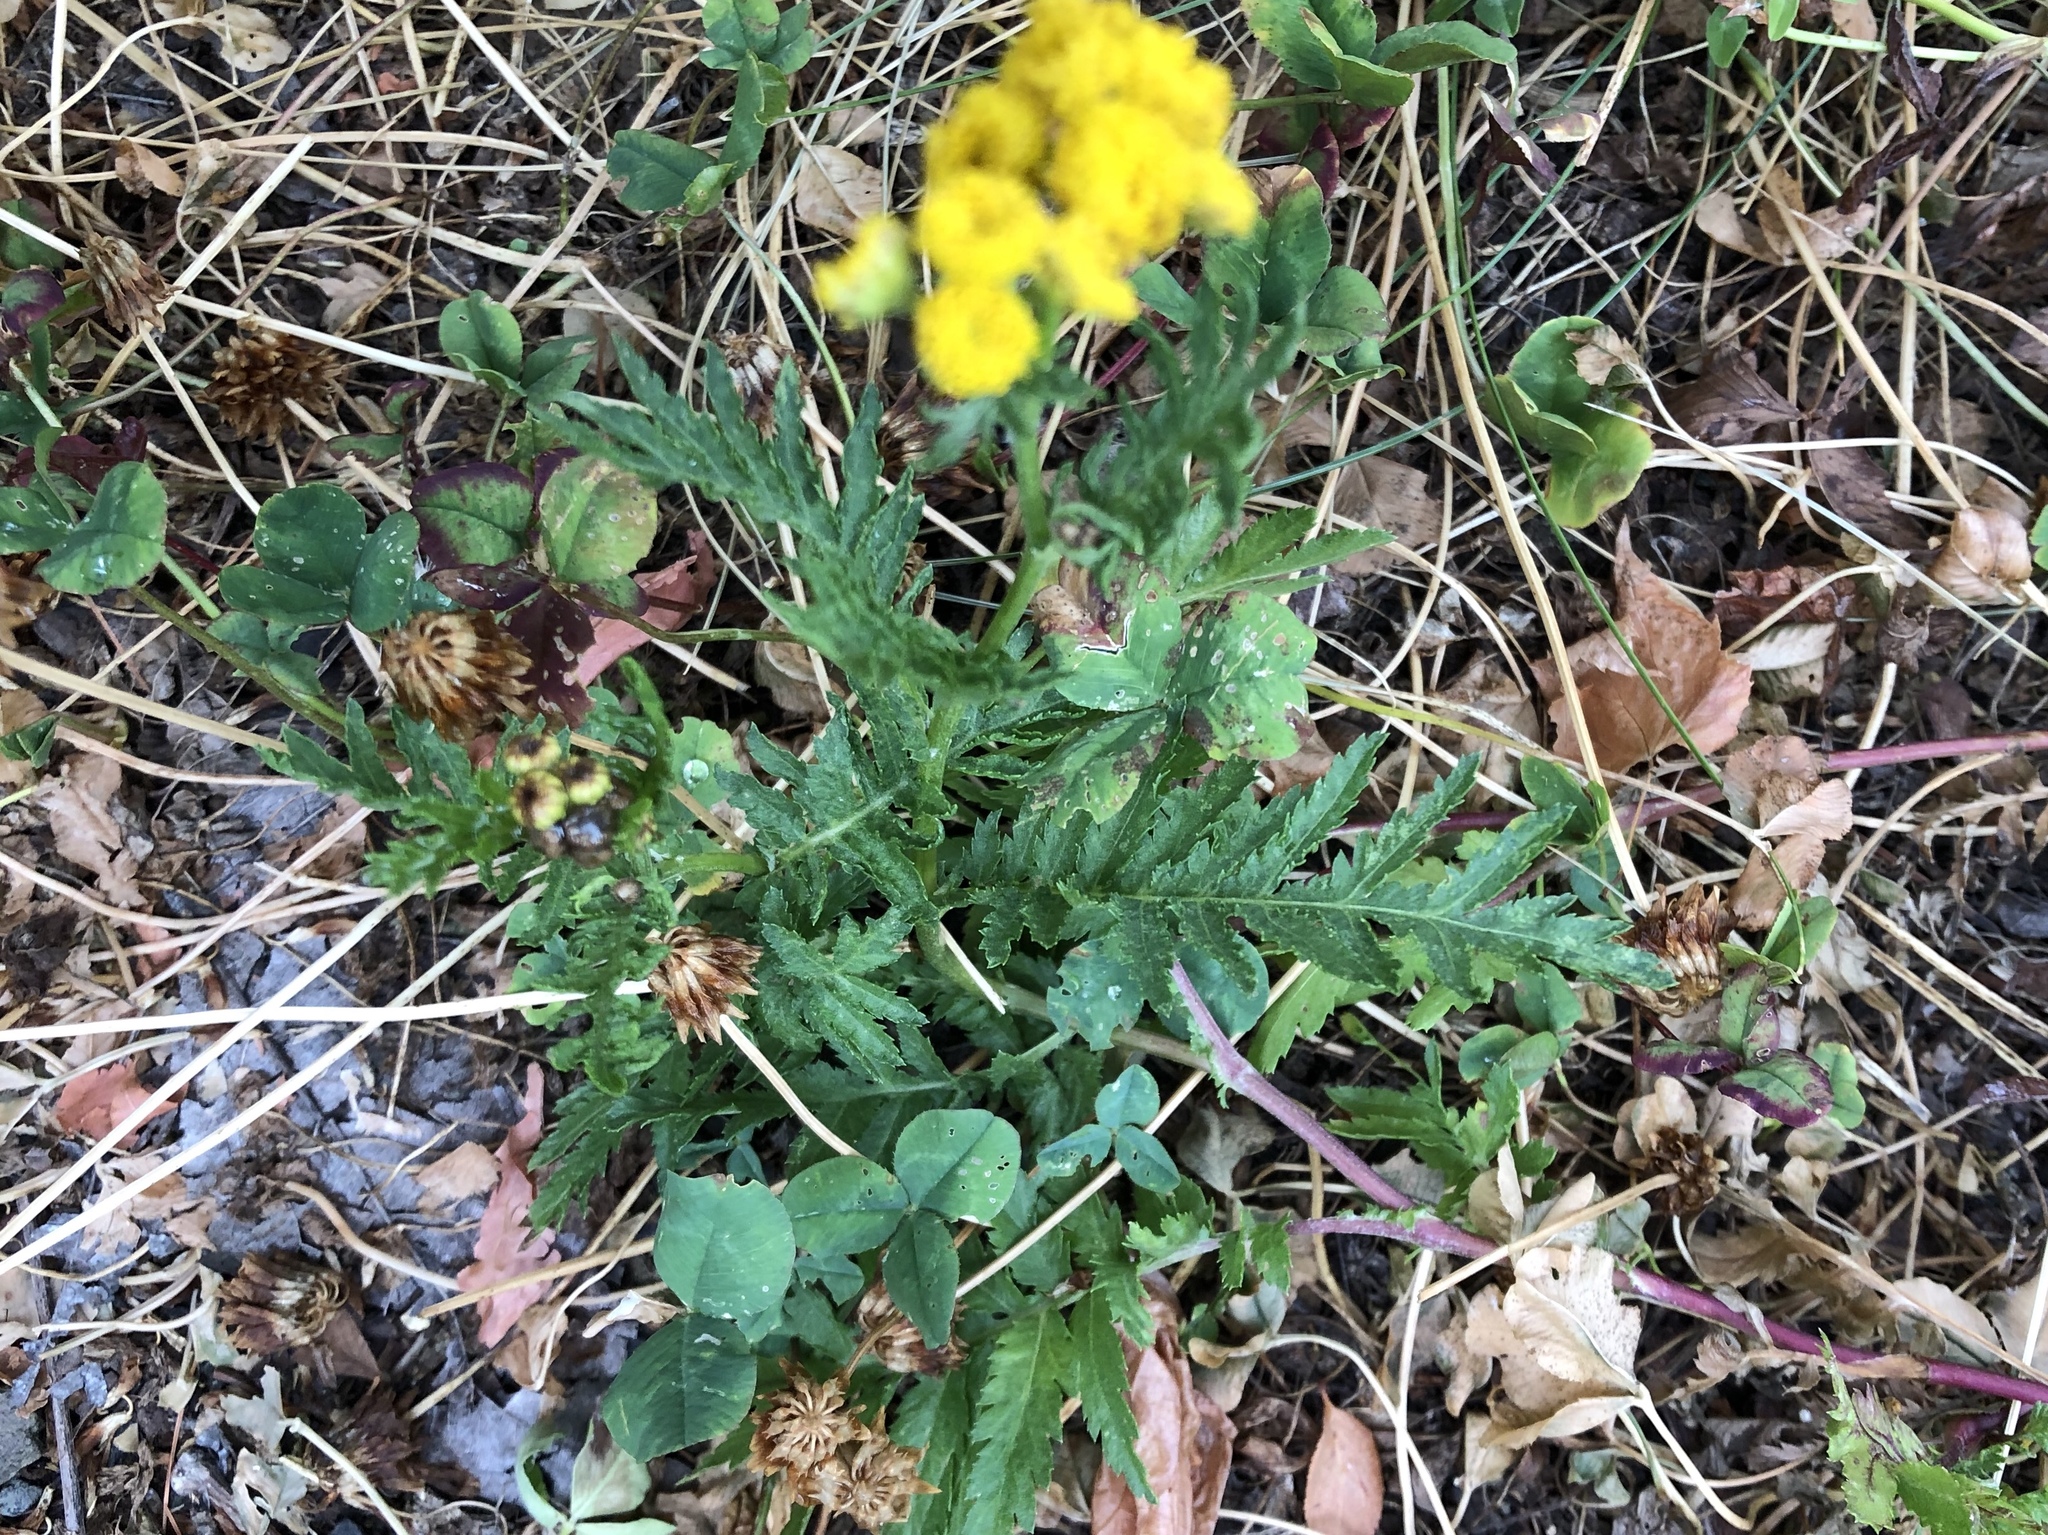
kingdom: Plantae
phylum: Tracheophyta
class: Magnoliopsida
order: Asterales
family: Asteraceae
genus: Tanacetum
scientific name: Tanacetum vulgare
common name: Common tansy
